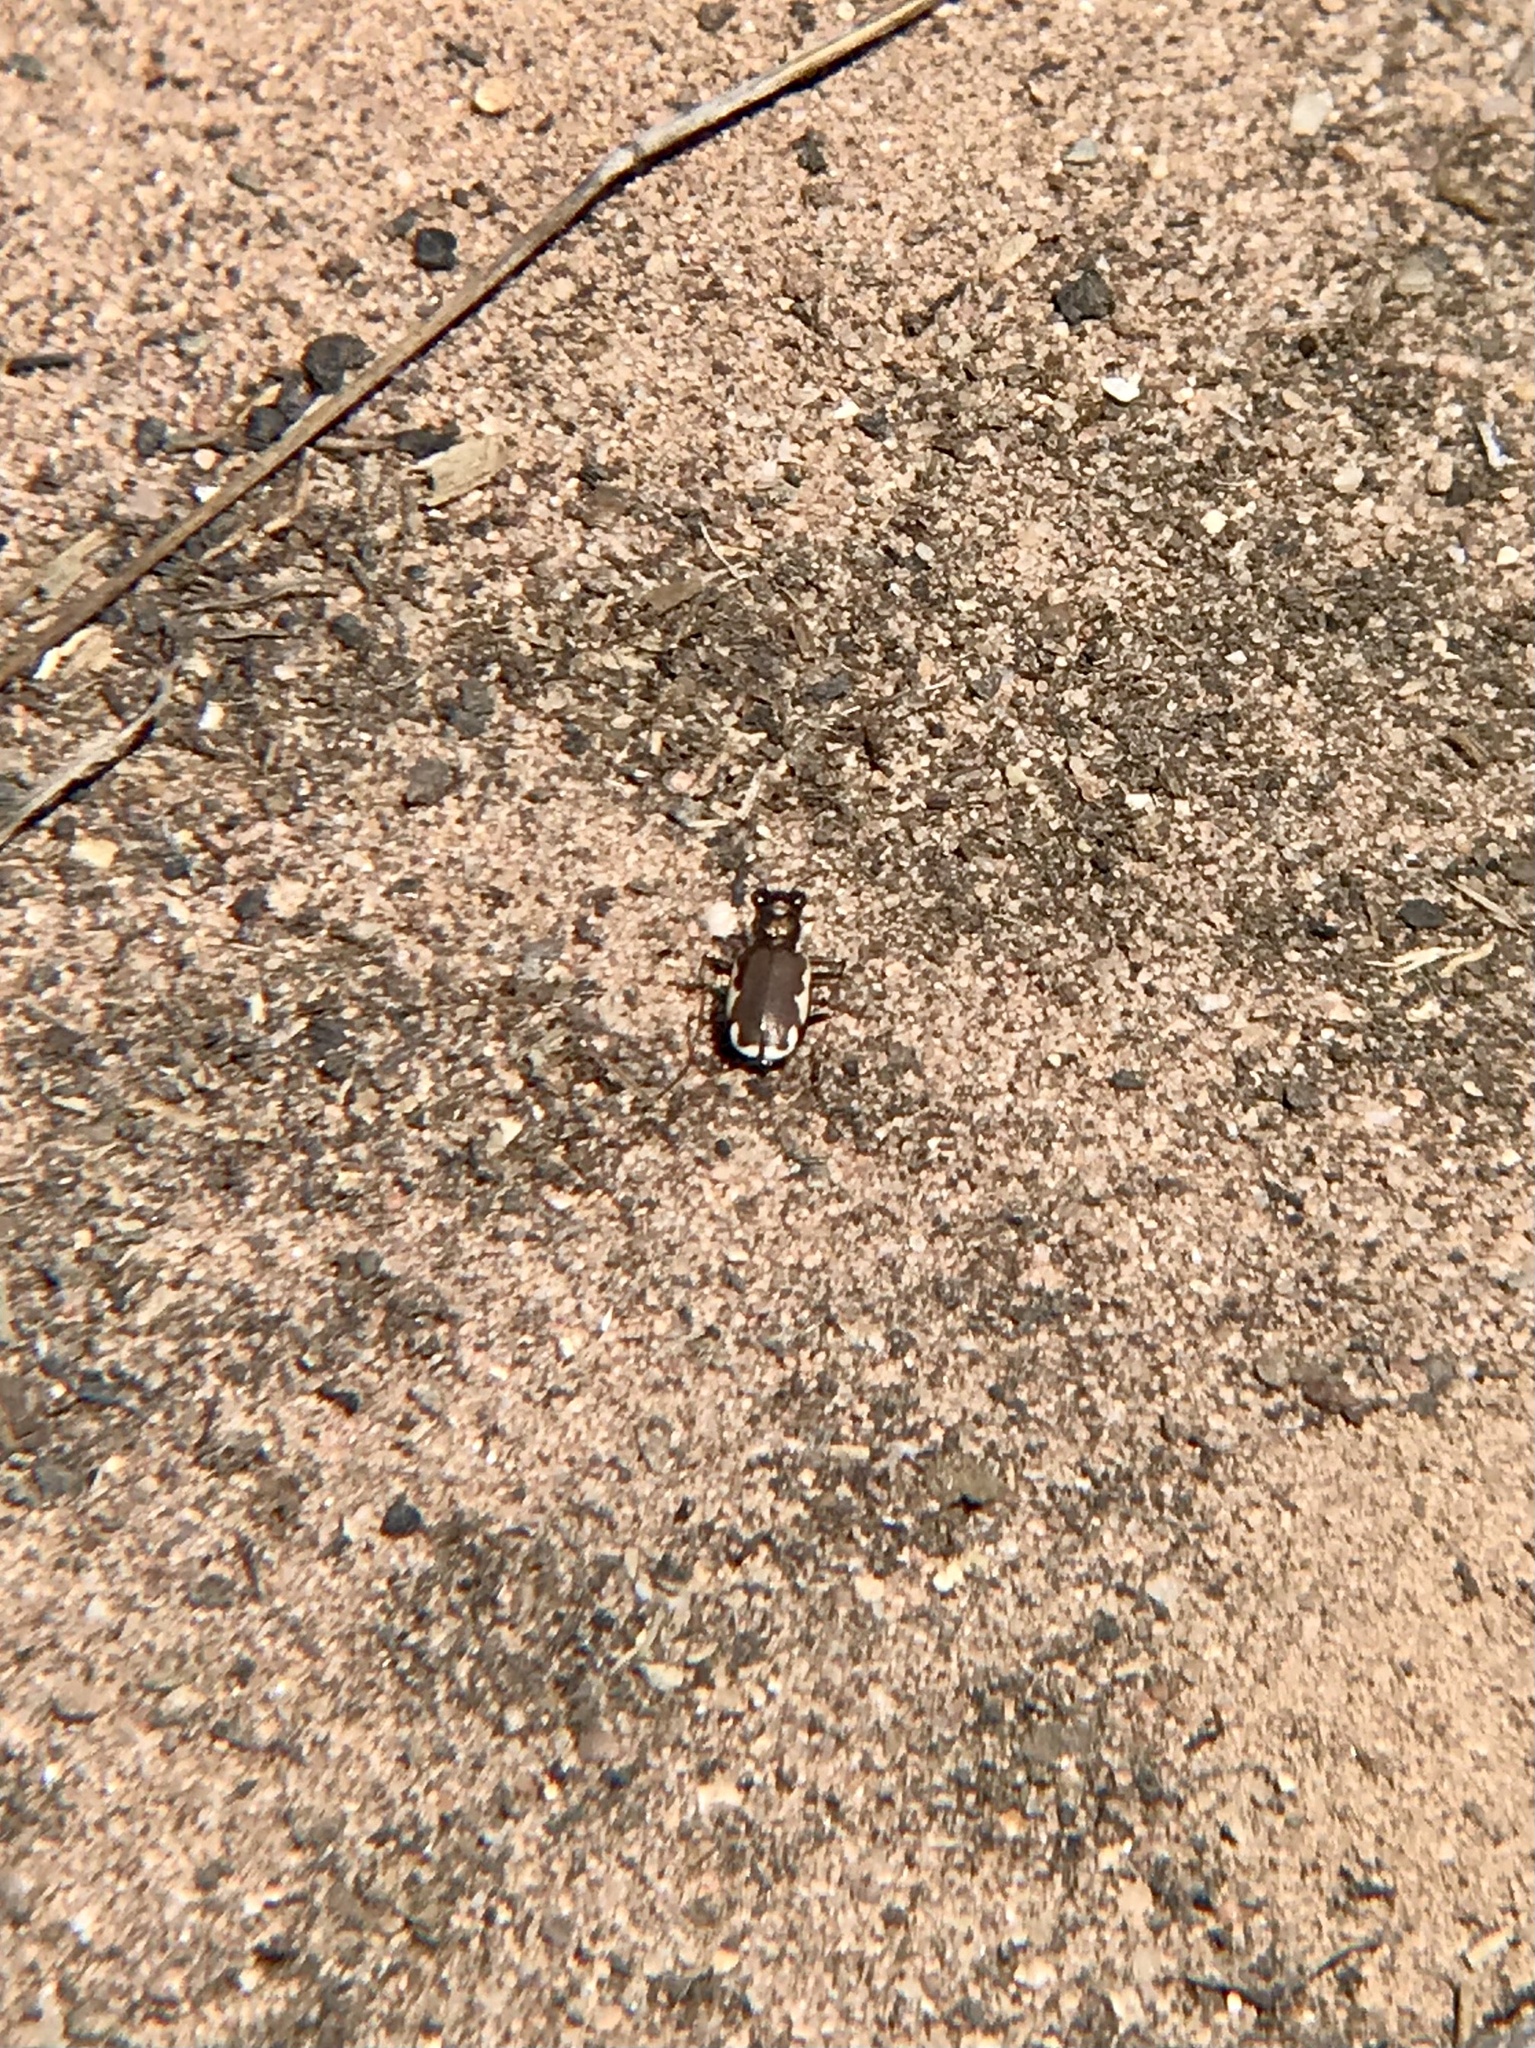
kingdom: Animalia
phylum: Arthropoda
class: Insecta
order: Coleoptera
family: Carabidae
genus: Cicindela
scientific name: Cicindela scutellaris
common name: Festive tiger beetle
